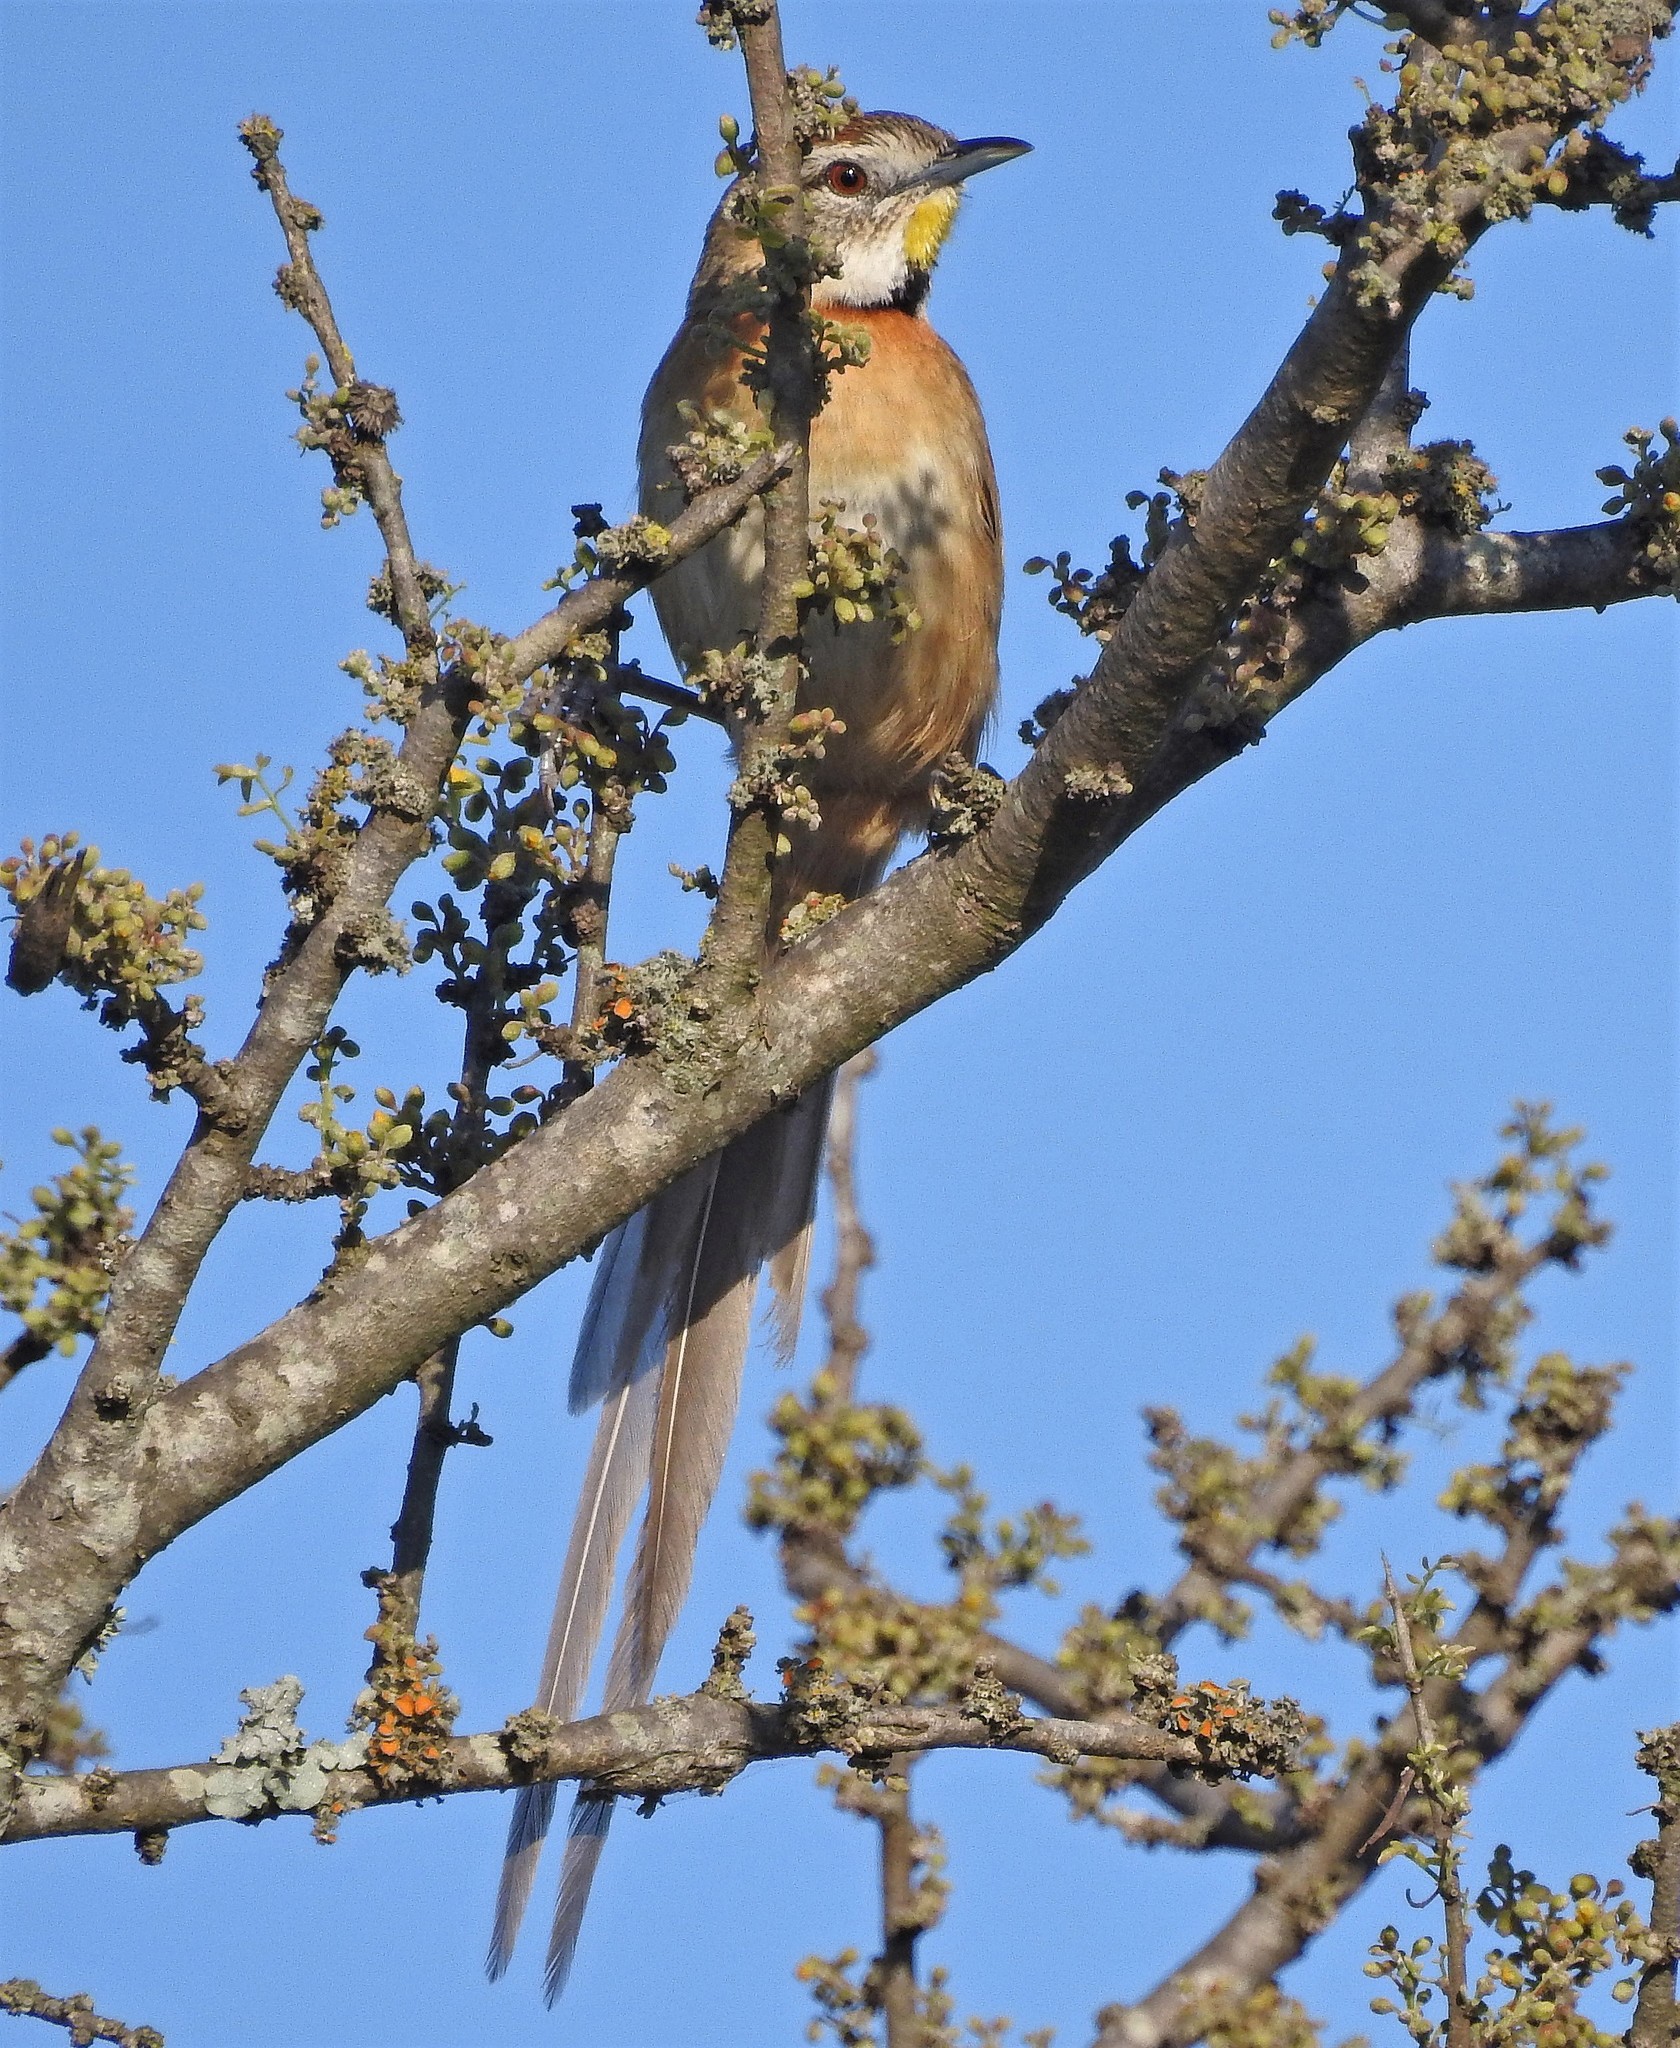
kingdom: Animalia
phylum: Chordata
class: Aves
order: Passeriformes
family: Furnariidae
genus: Schoeniophylax
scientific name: Schoeniophylax phryganophilus
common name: Chotoy spinetail
